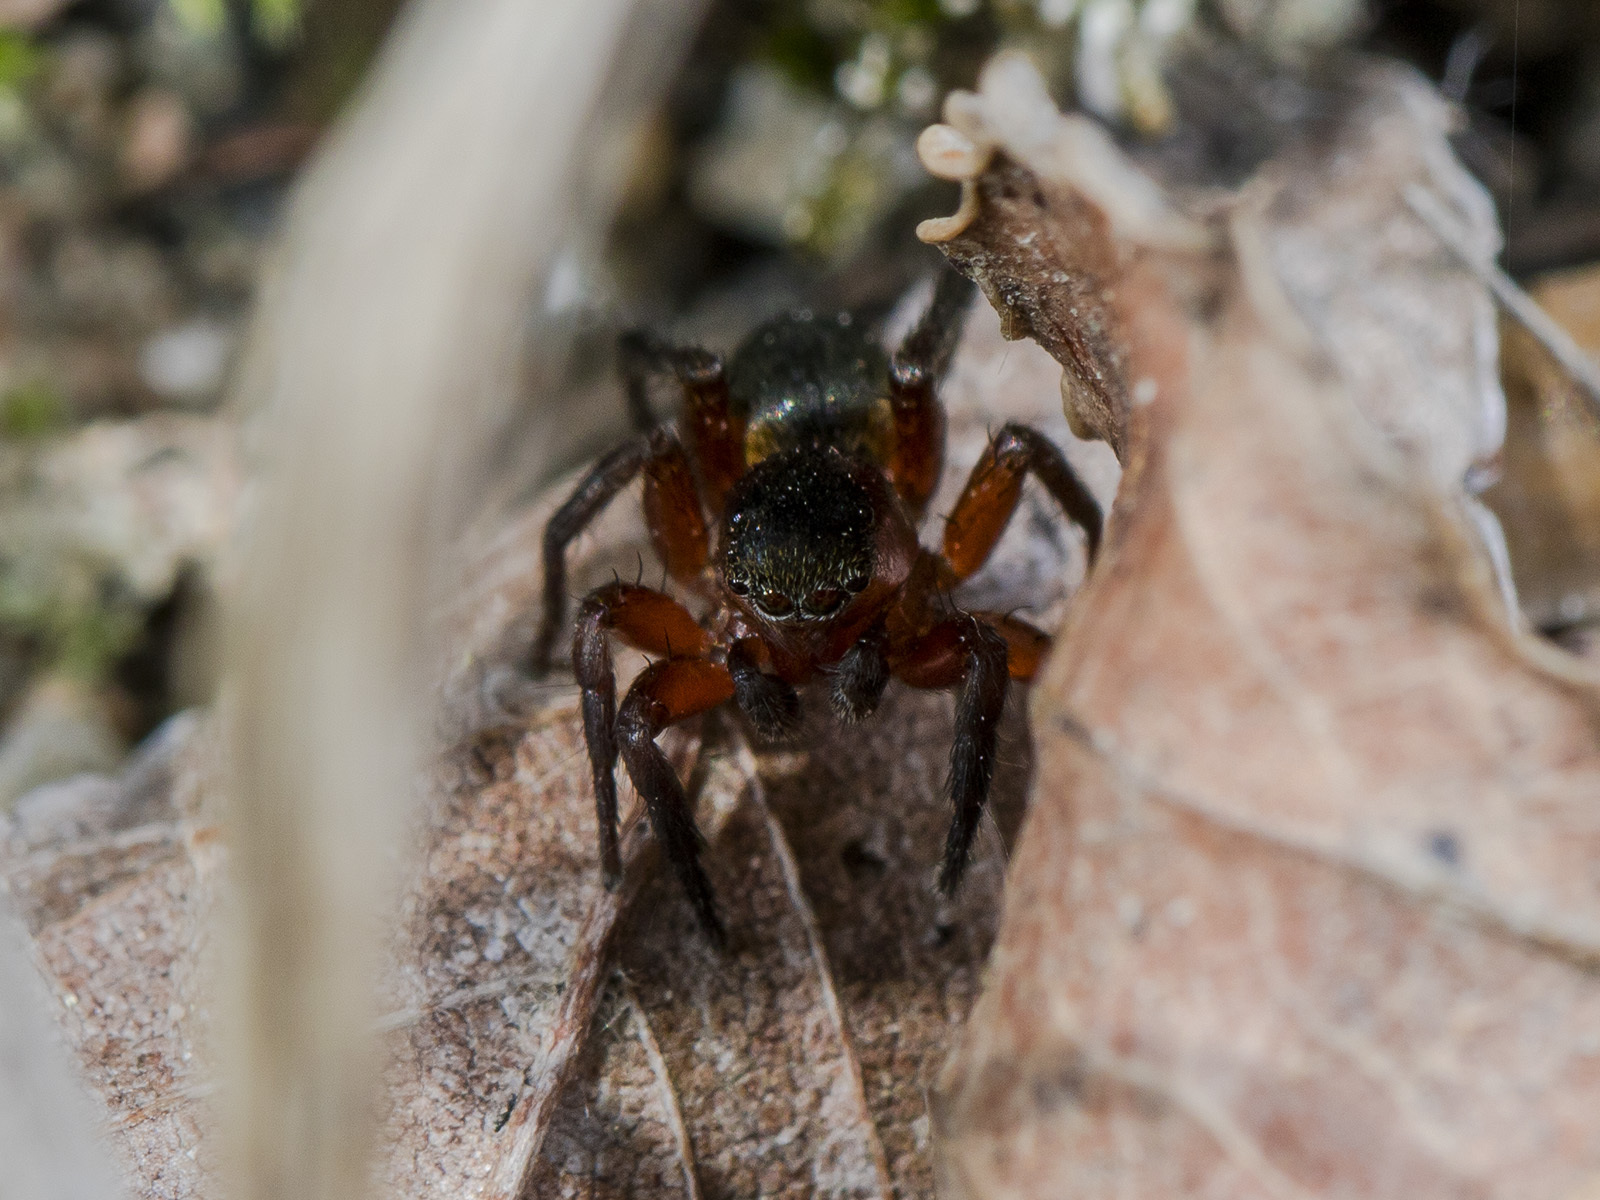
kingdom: Animalia
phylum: Arthropoda
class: Arachnida
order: Araneae
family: Salticidae
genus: Phlegra
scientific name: Phlegra fasciata
